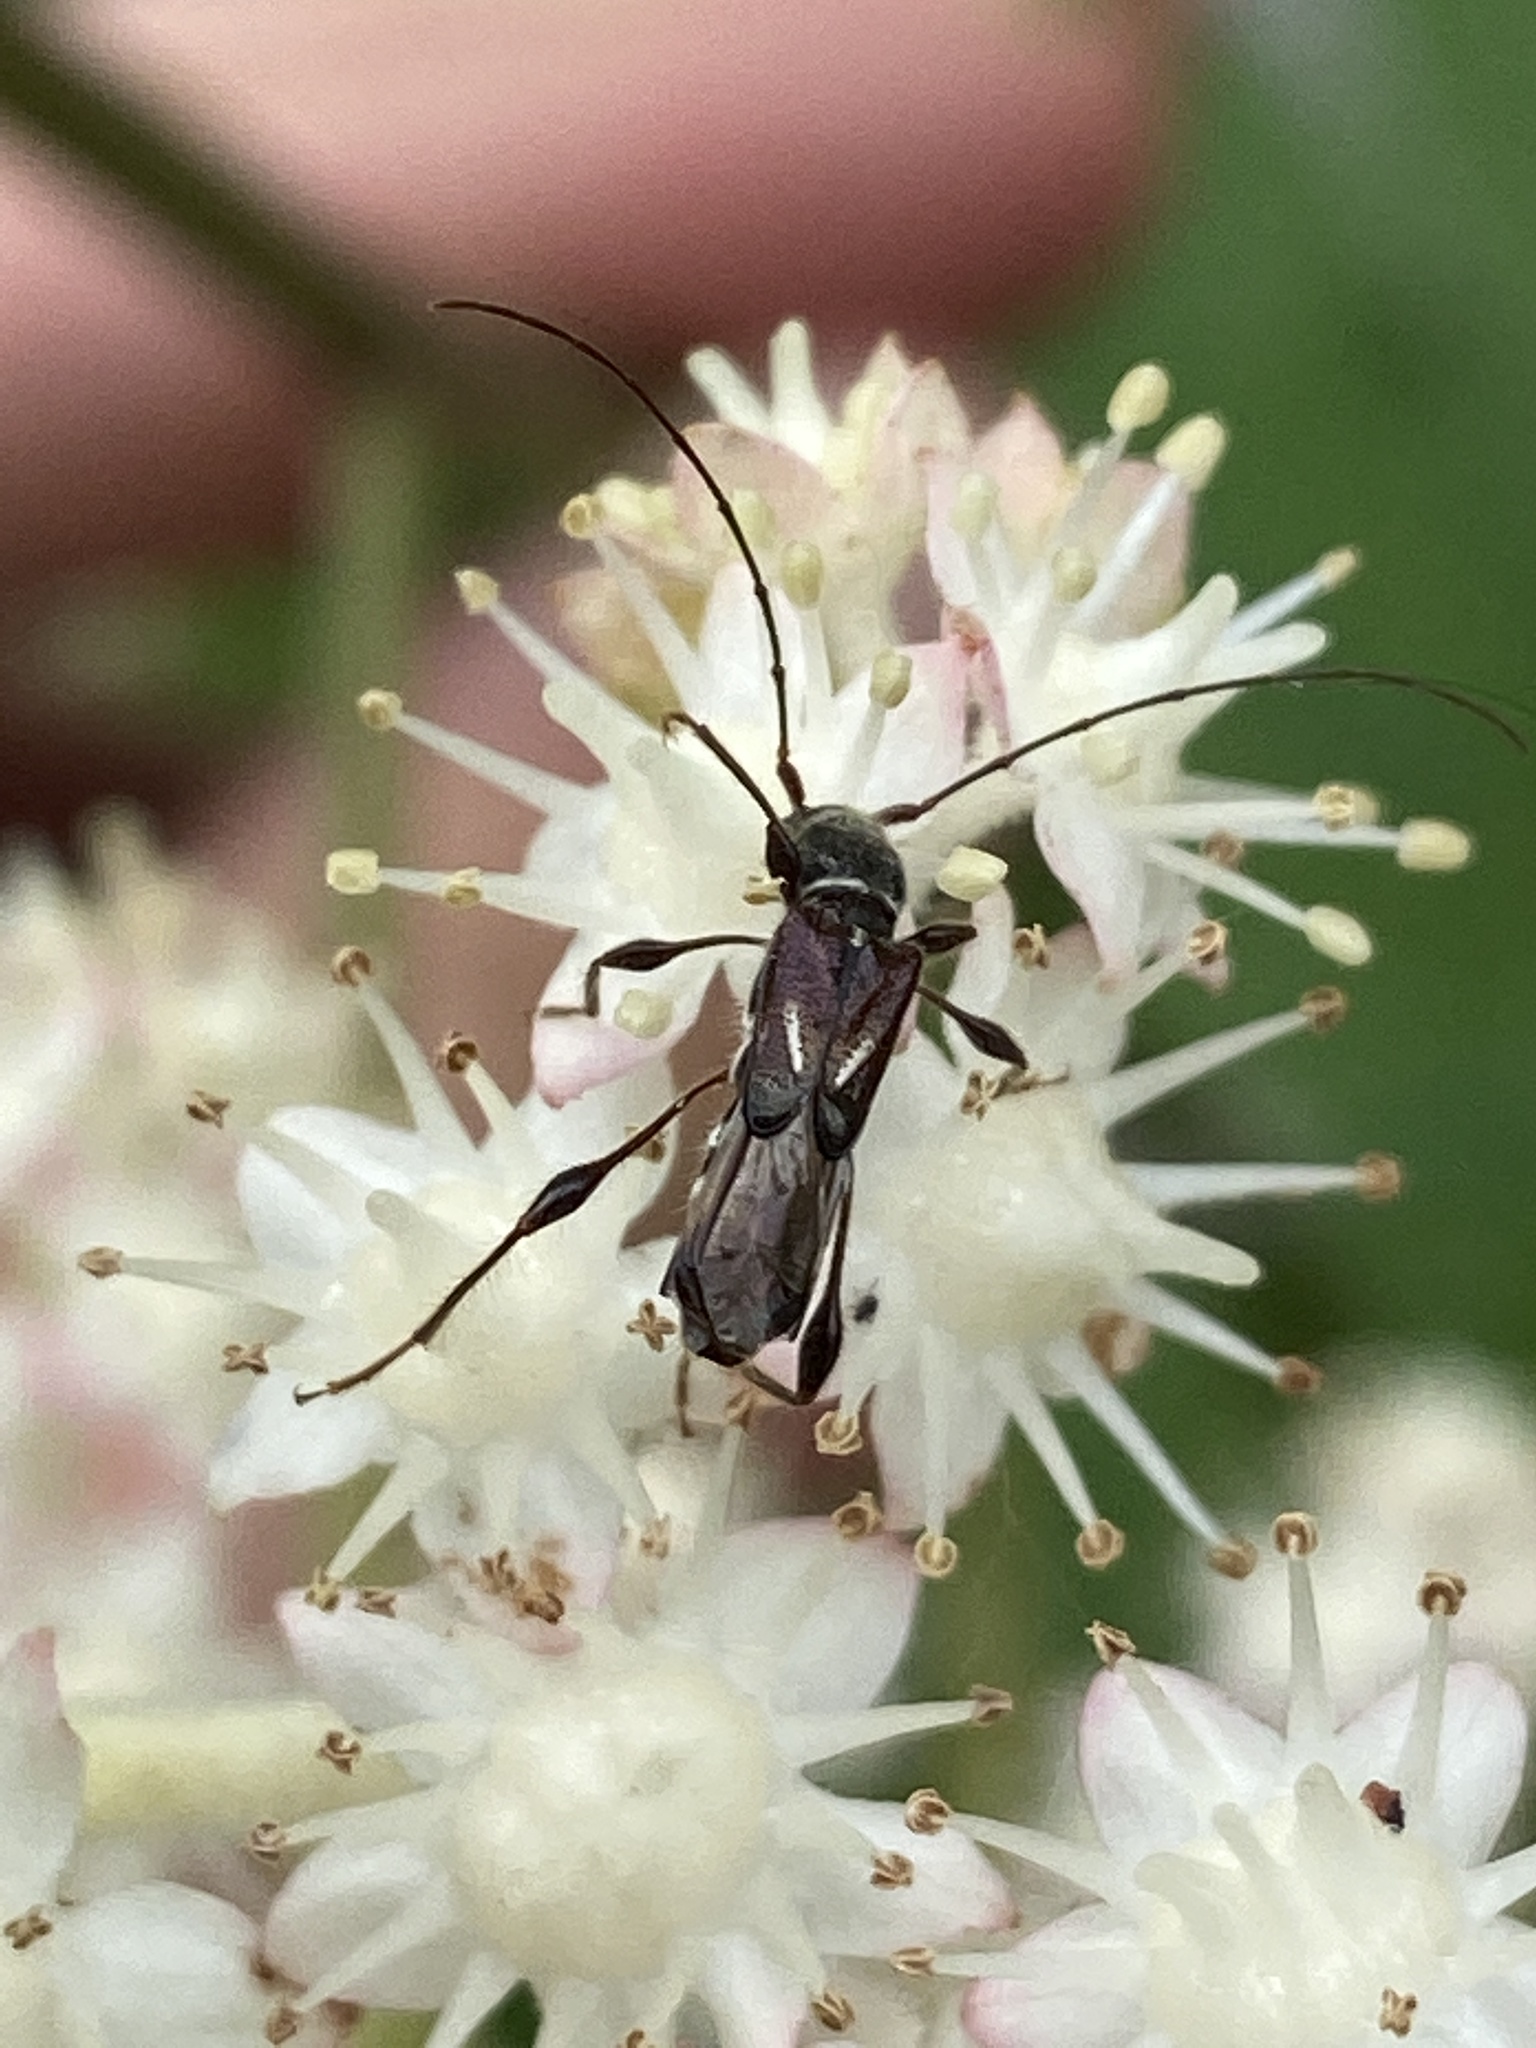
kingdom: Animalia
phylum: Arthropoda
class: Insecta
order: Coleoptera
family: Cerambycidae
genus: Molorchus
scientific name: Molorchus minor
